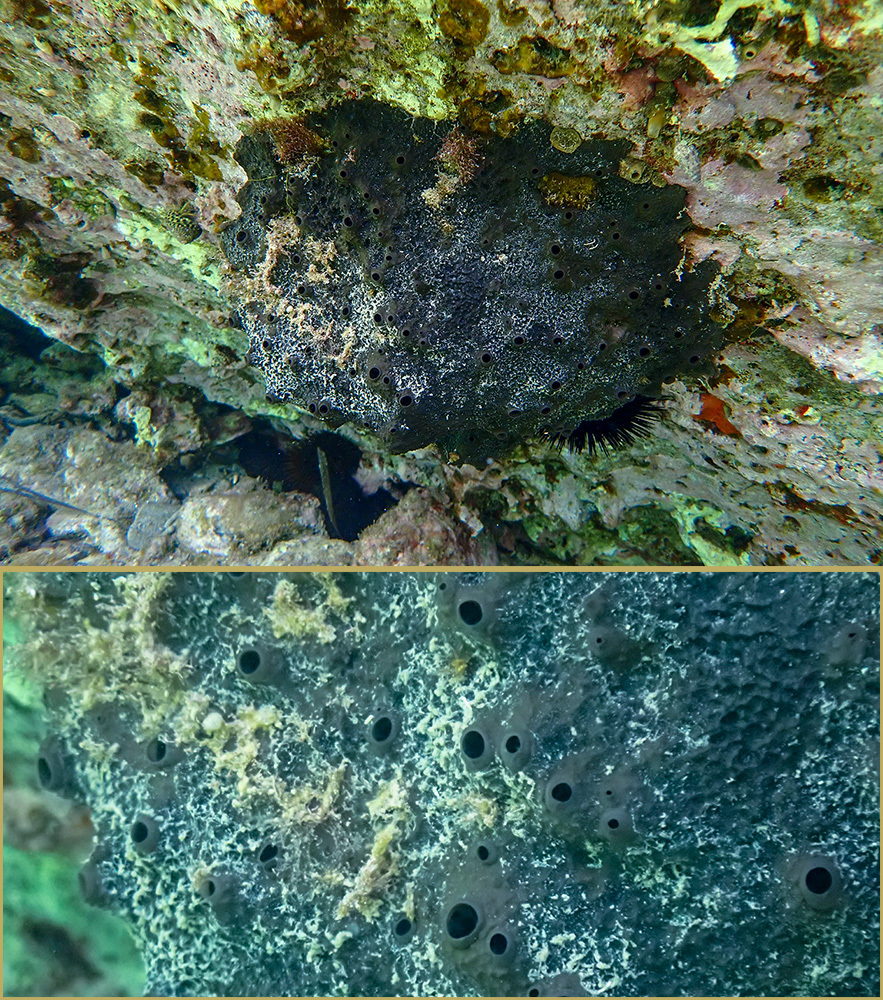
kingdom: Animalia
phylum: Porifera
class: Demospongiae
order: Dictyoceratida
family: Irciniidae
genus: Sarcotragus
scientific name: Sarcotragus spinosulus
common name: Black leather sponge
